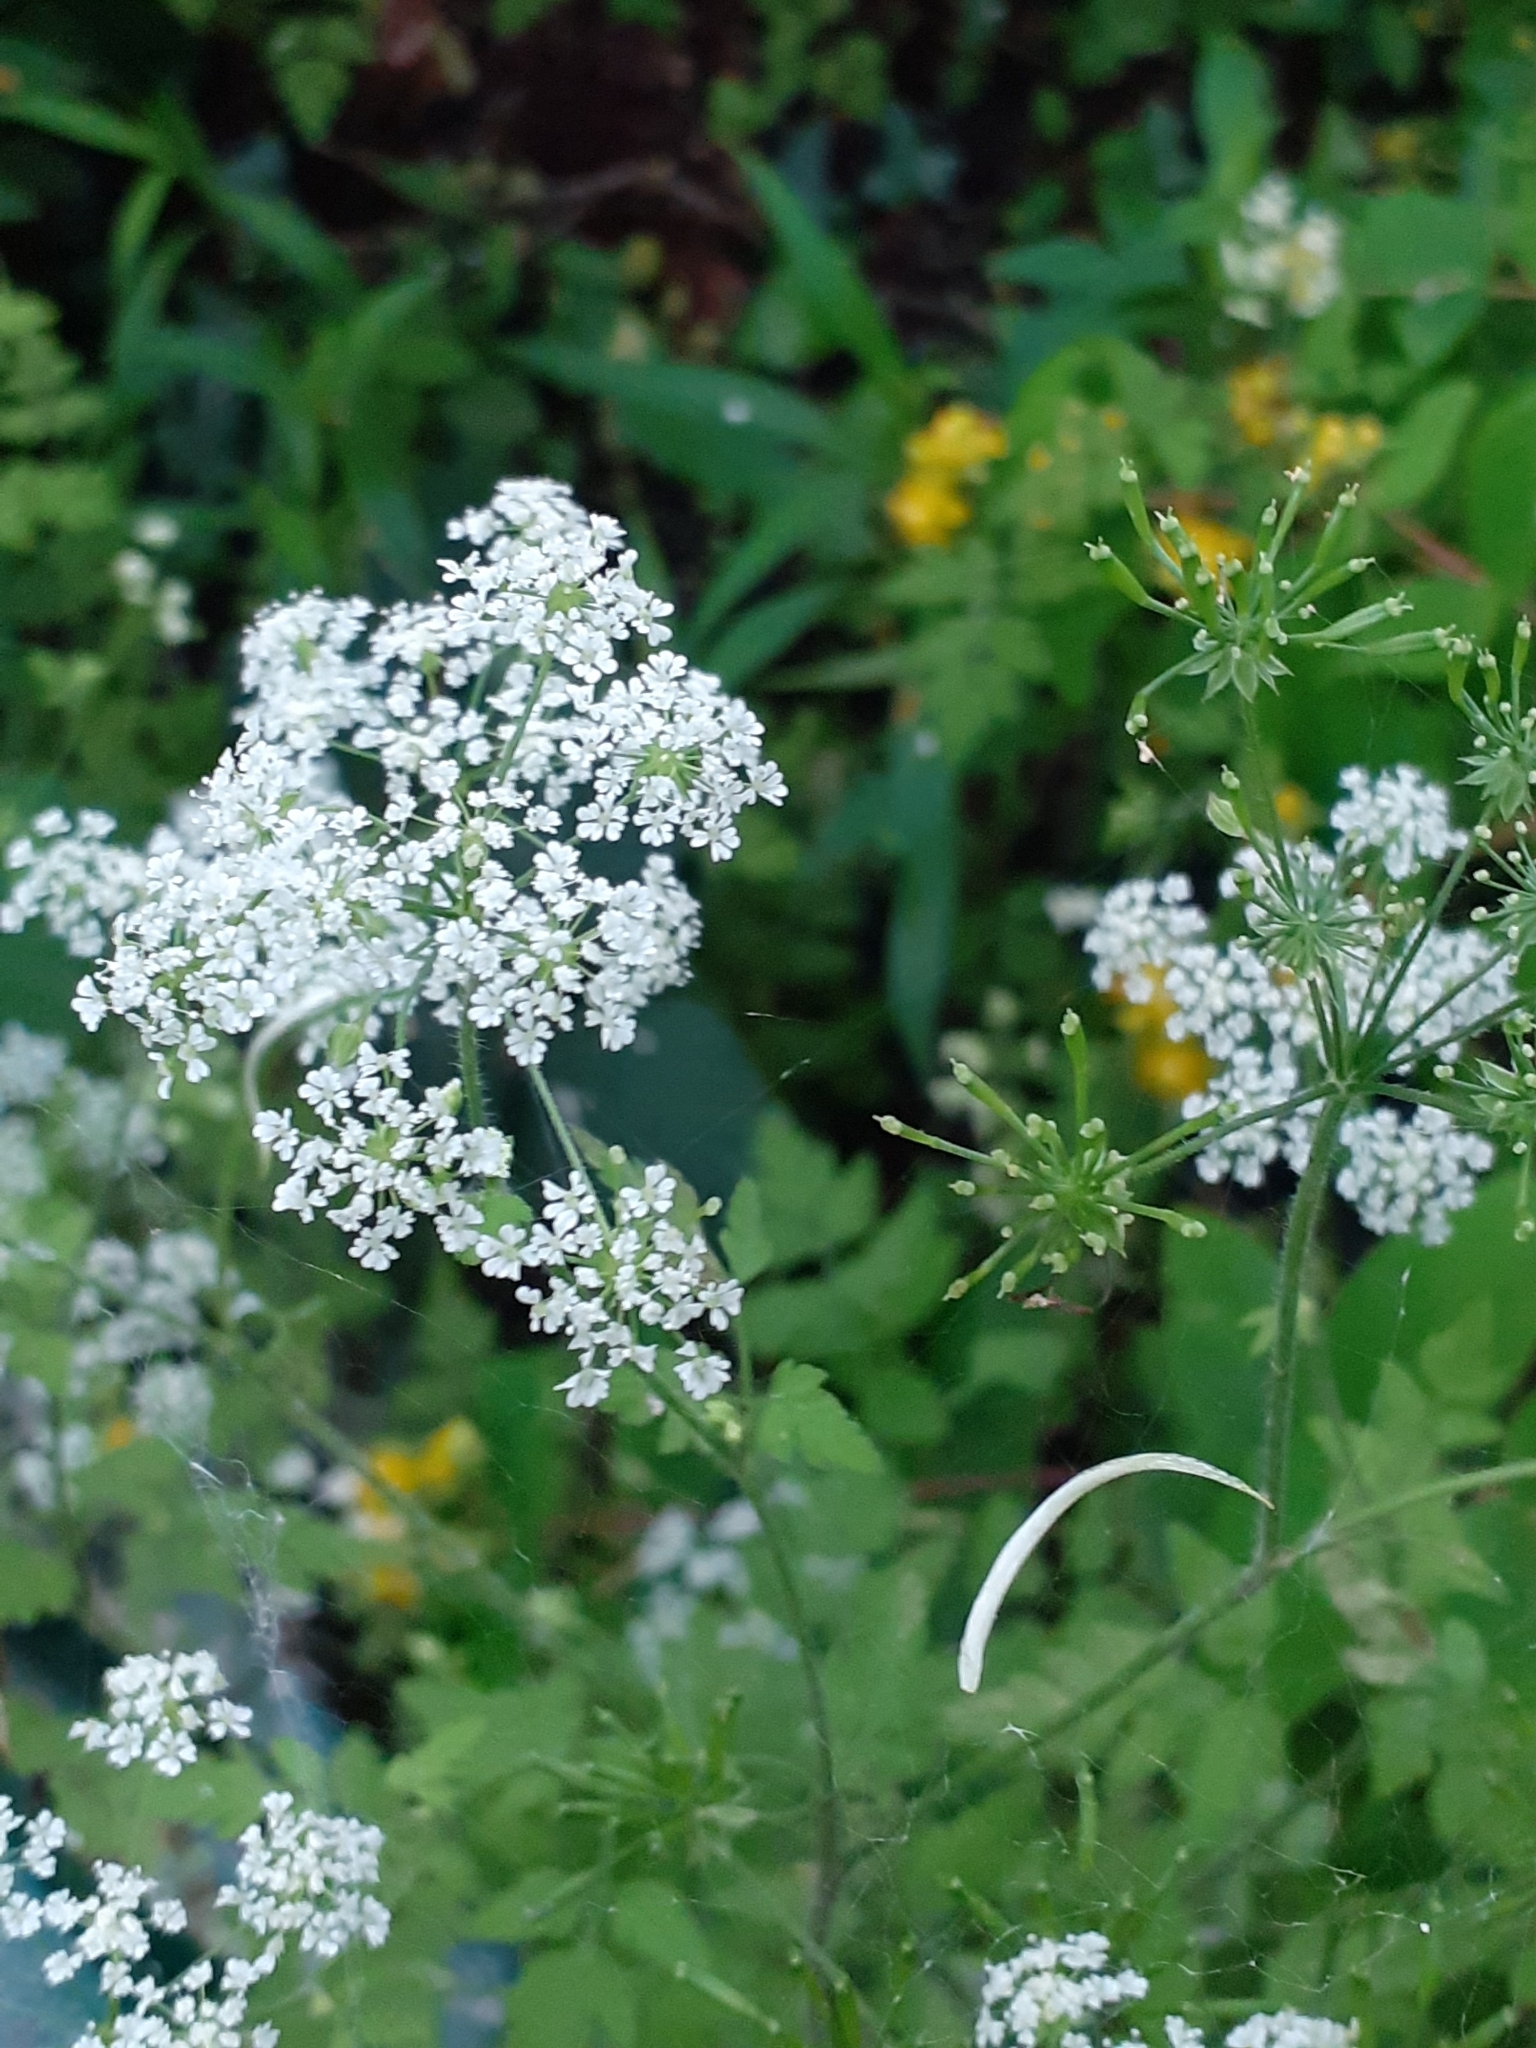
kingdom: Plantae
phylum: Tracheophyta
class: Magnoliopsida
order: Apiales
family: Apiaceae
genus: Anthriscus
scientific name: Anthriscus sylvestris
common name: Cow parsley
